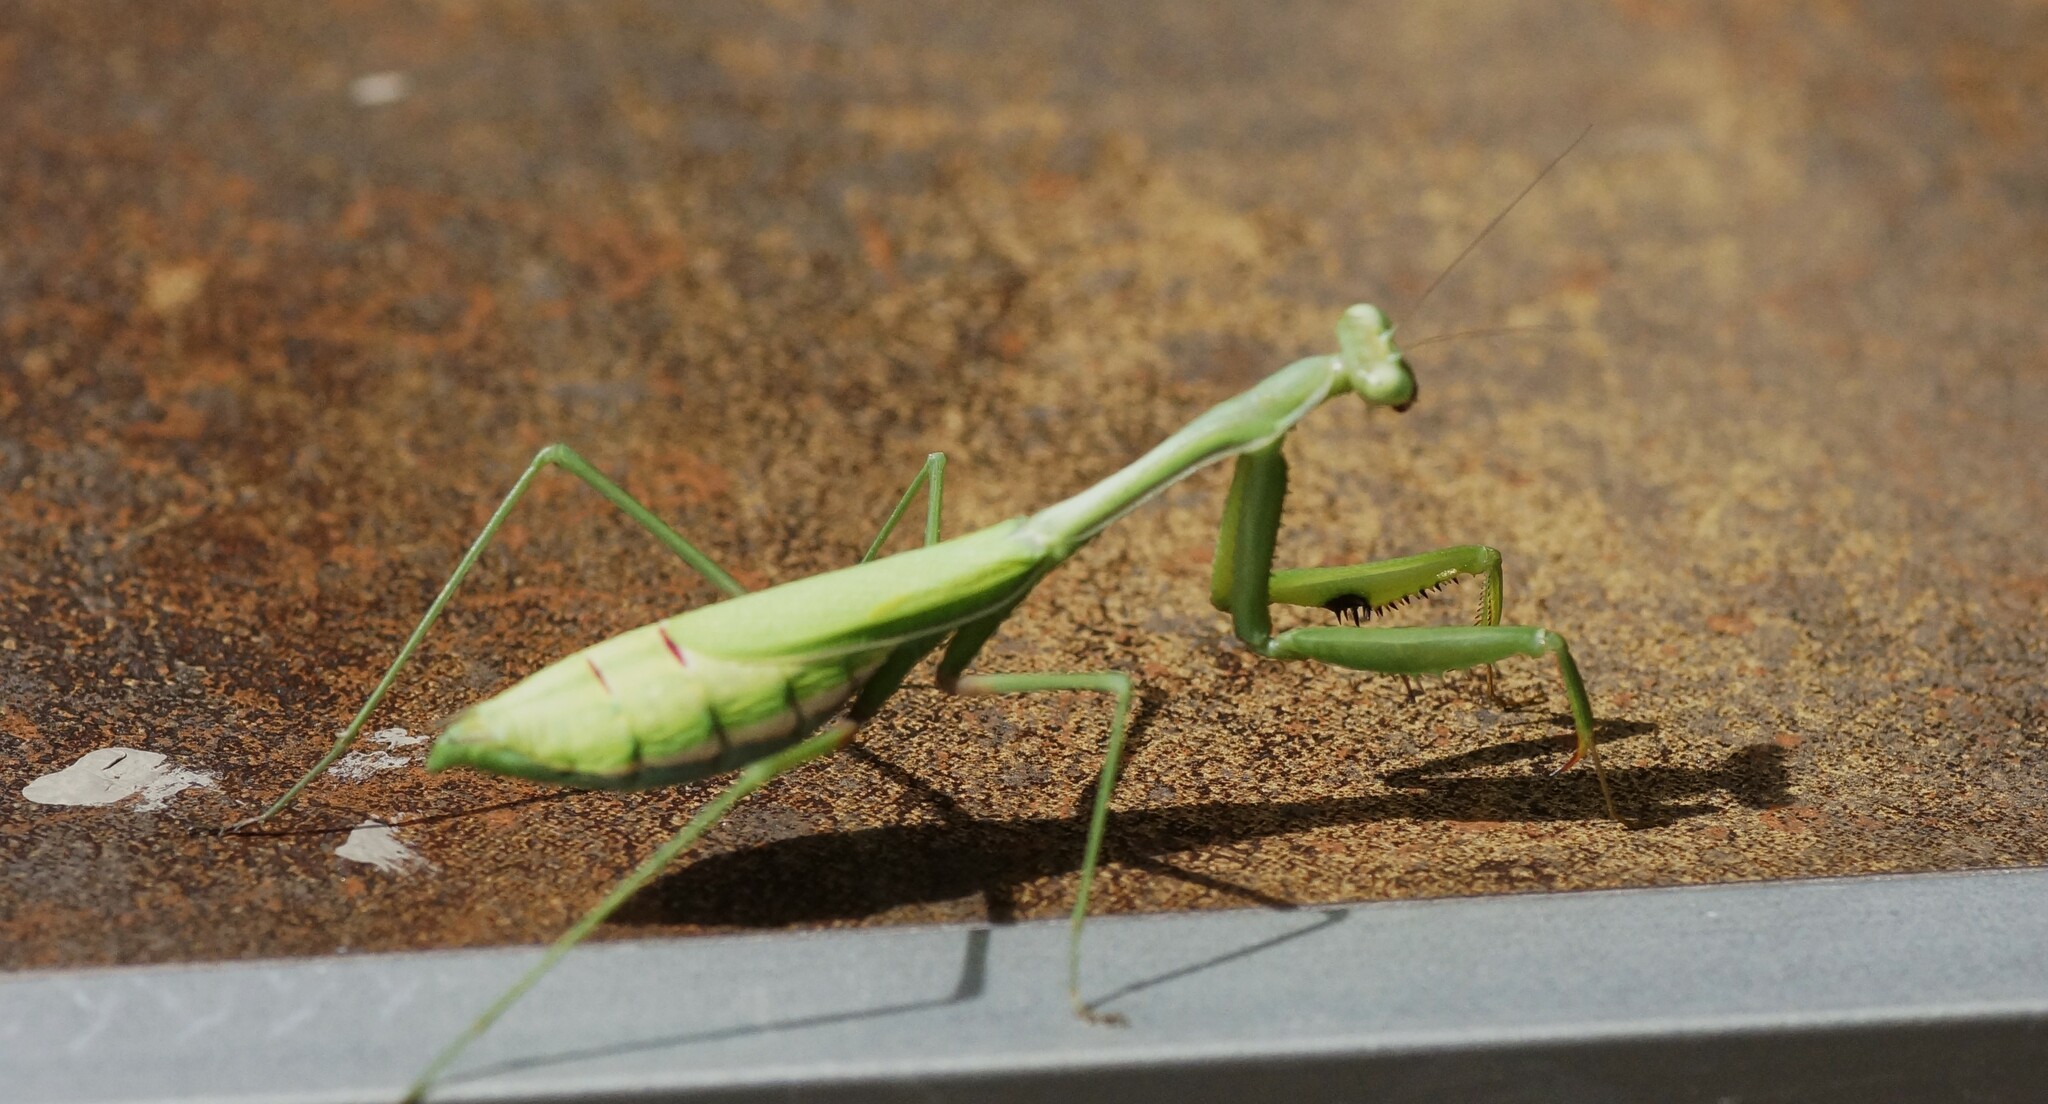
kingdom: Animalia
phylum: Arthropoda
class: Insecta
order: Mantodea
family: Mantidae
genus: Pseudomantis
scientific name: Pseudomantis albofimbriata
